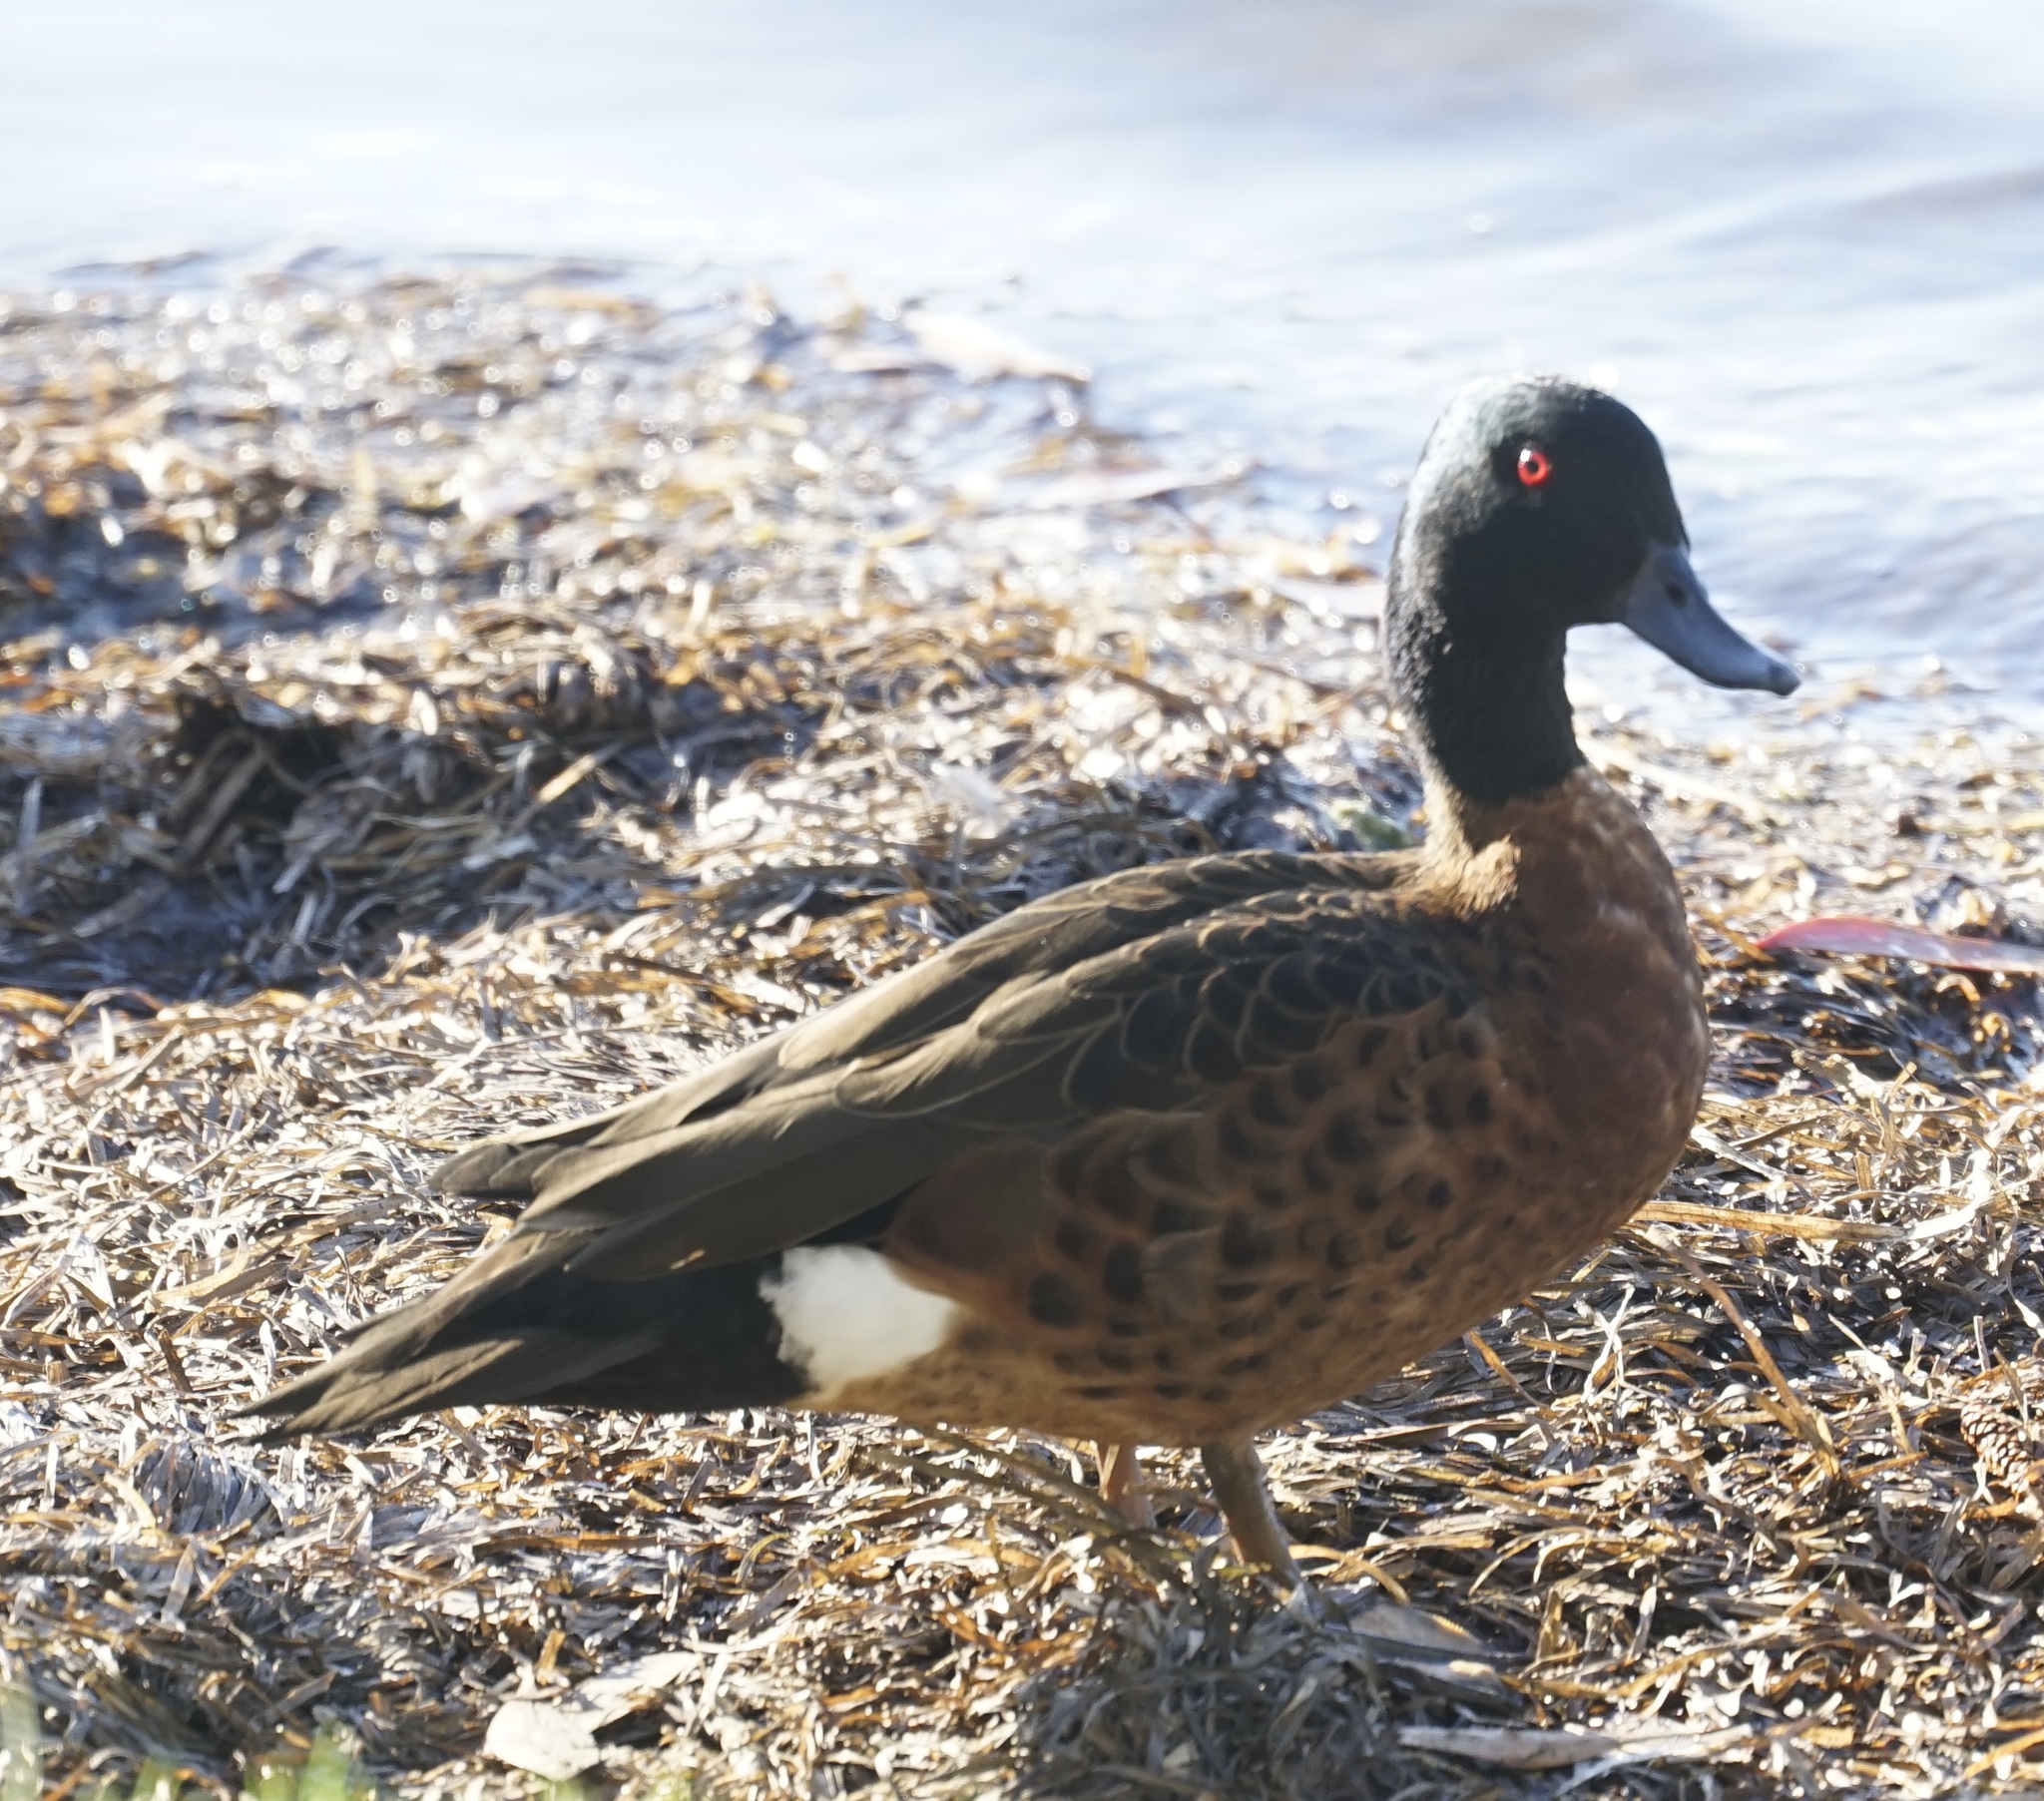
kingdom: Animalia
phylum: Chordata
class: Aves
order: Anseriformes
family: Anatidae
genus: Anas
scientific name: Anas castanea
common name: Chestnut teal
